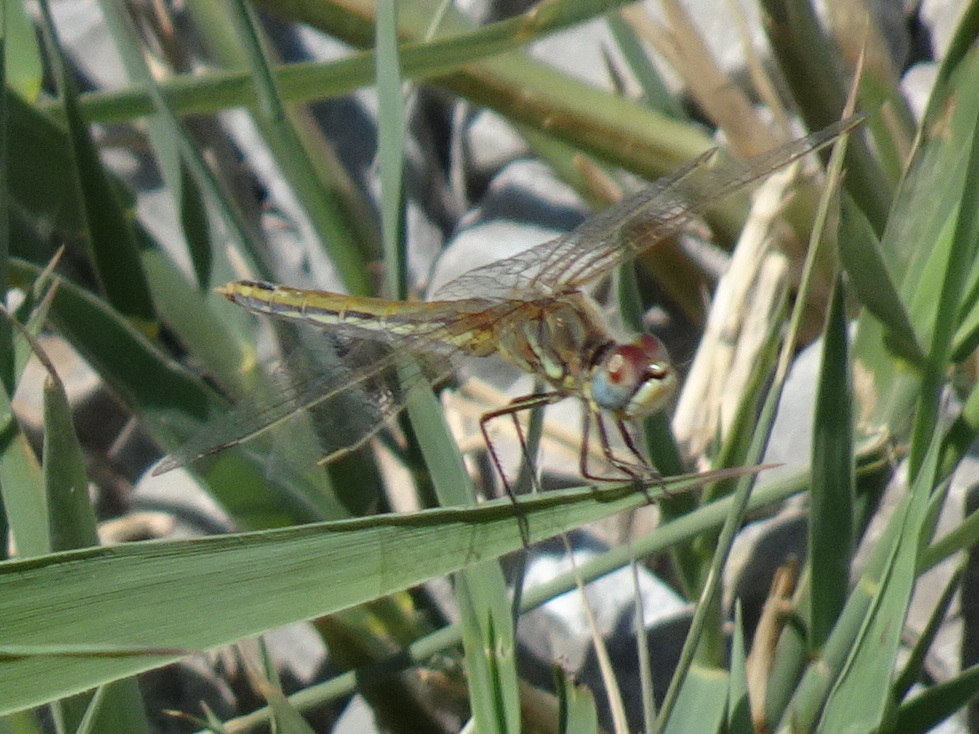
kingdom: Animalia
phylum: Arthropoda
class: Insecta
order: Odonata
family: Libellulidae
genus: Sympetrum
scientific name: Sympetrum fonscolombii
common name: Red-veined darter
